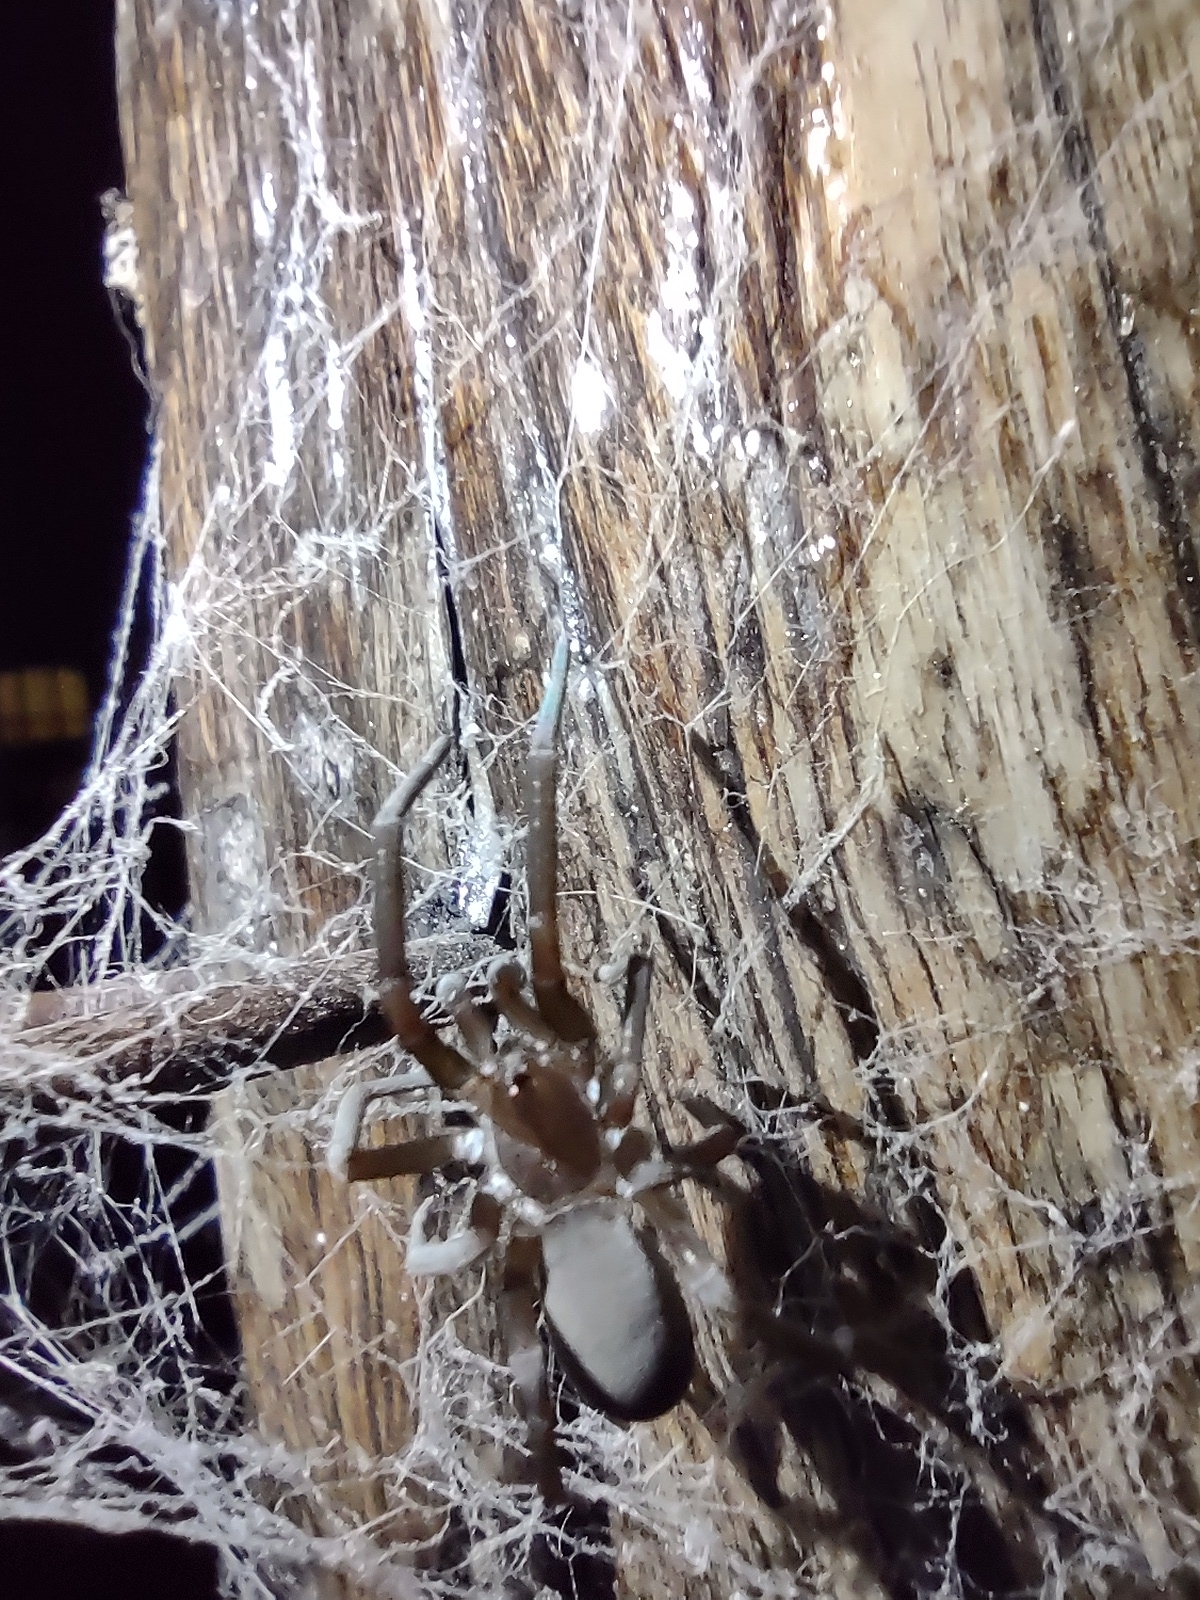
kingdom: Animalia
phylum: Arthropoda
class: Arachnida
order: Araneae
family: Filistatidae
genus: Kukulcania
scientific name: Kukulcania hibernalis
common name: Crevice weaver
